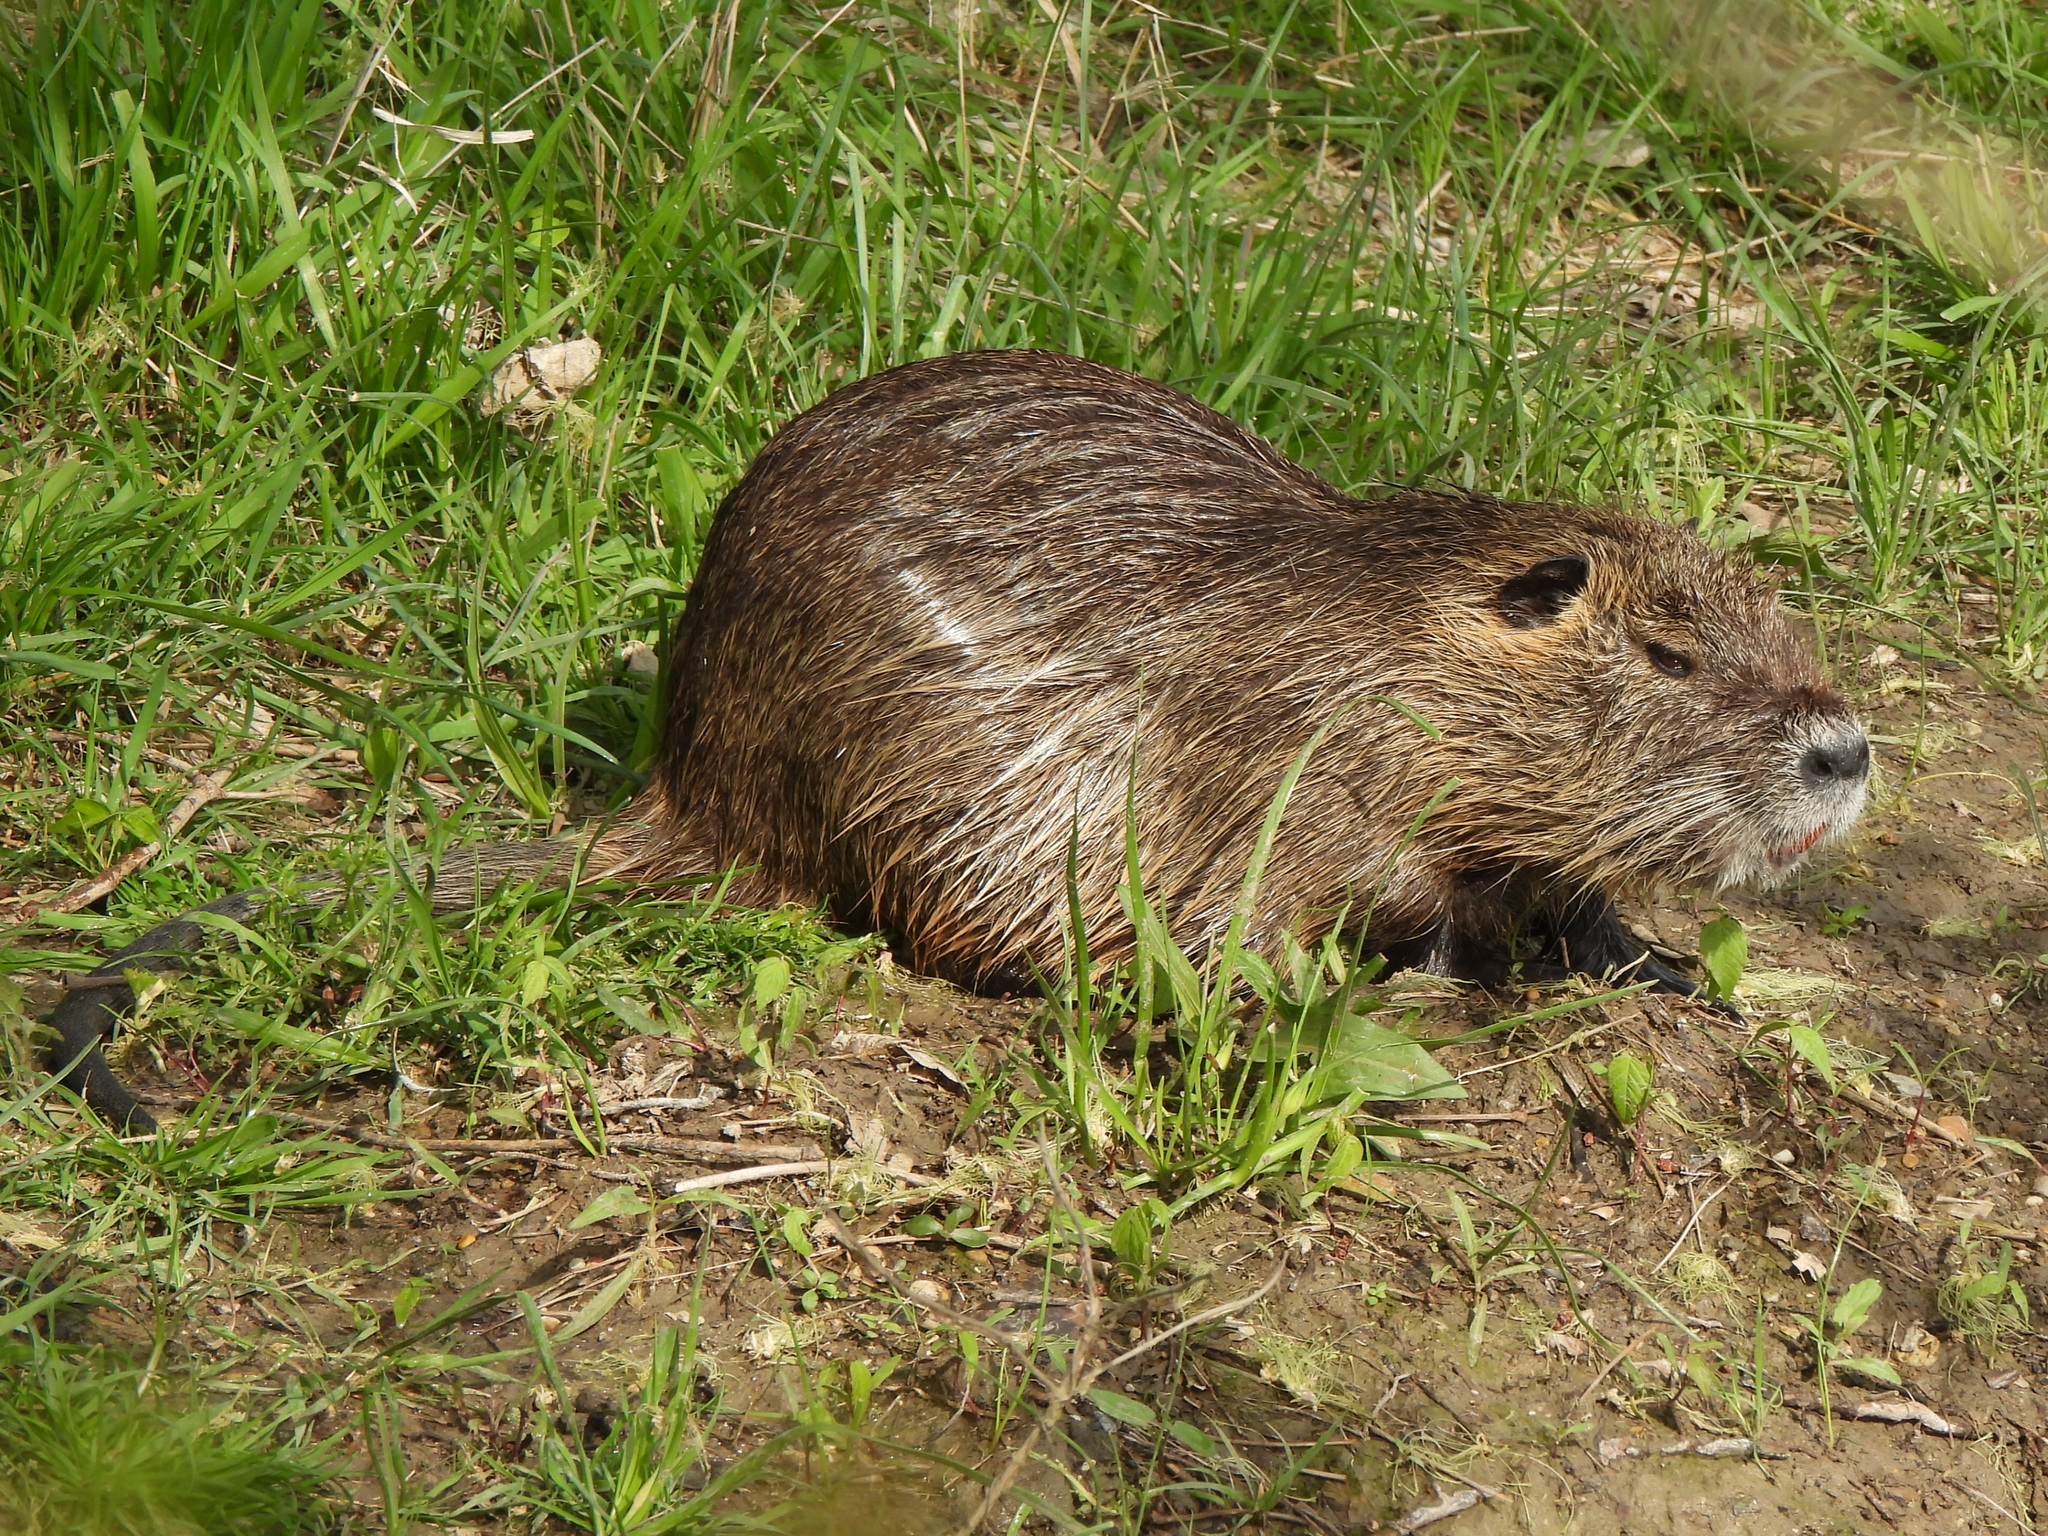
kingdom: Animalia
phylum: Chordata
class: Mammalia
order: Rodentia
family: Myocastoridae
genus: Myocastor
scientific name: Myocastor coypus
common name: Coypu
